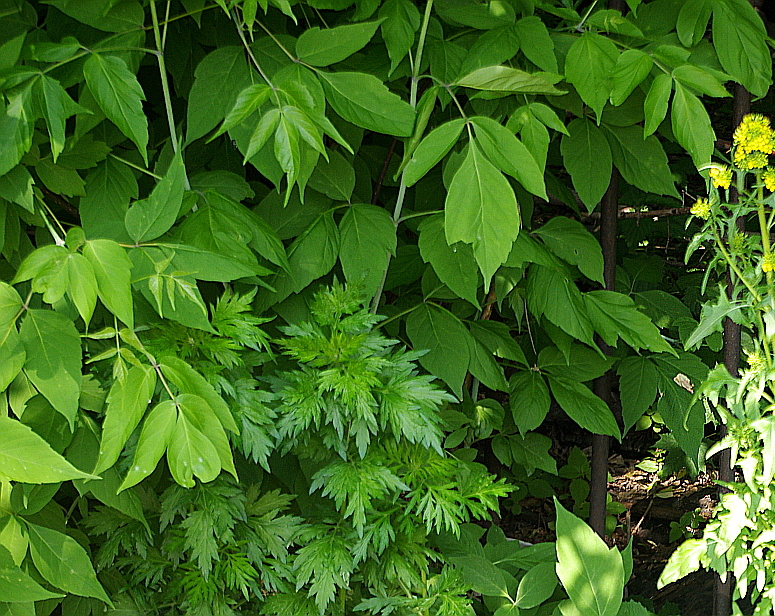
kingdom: Plantae
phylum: Tracheophyta
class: Magnoliopsida
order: Sapindales
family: Sapindaceae
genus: Acer
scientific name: Acer negundo
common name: Ashleaf maple
